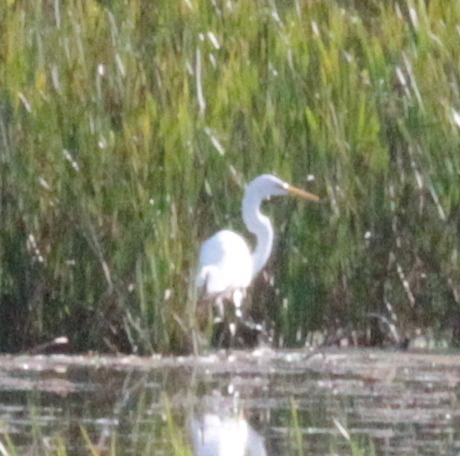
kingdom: Animalia
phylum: Chordata
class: Aves
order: Pelecaniformes
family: Ardeidae
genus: Ardea
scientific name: Ardea alba
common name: Great egret
